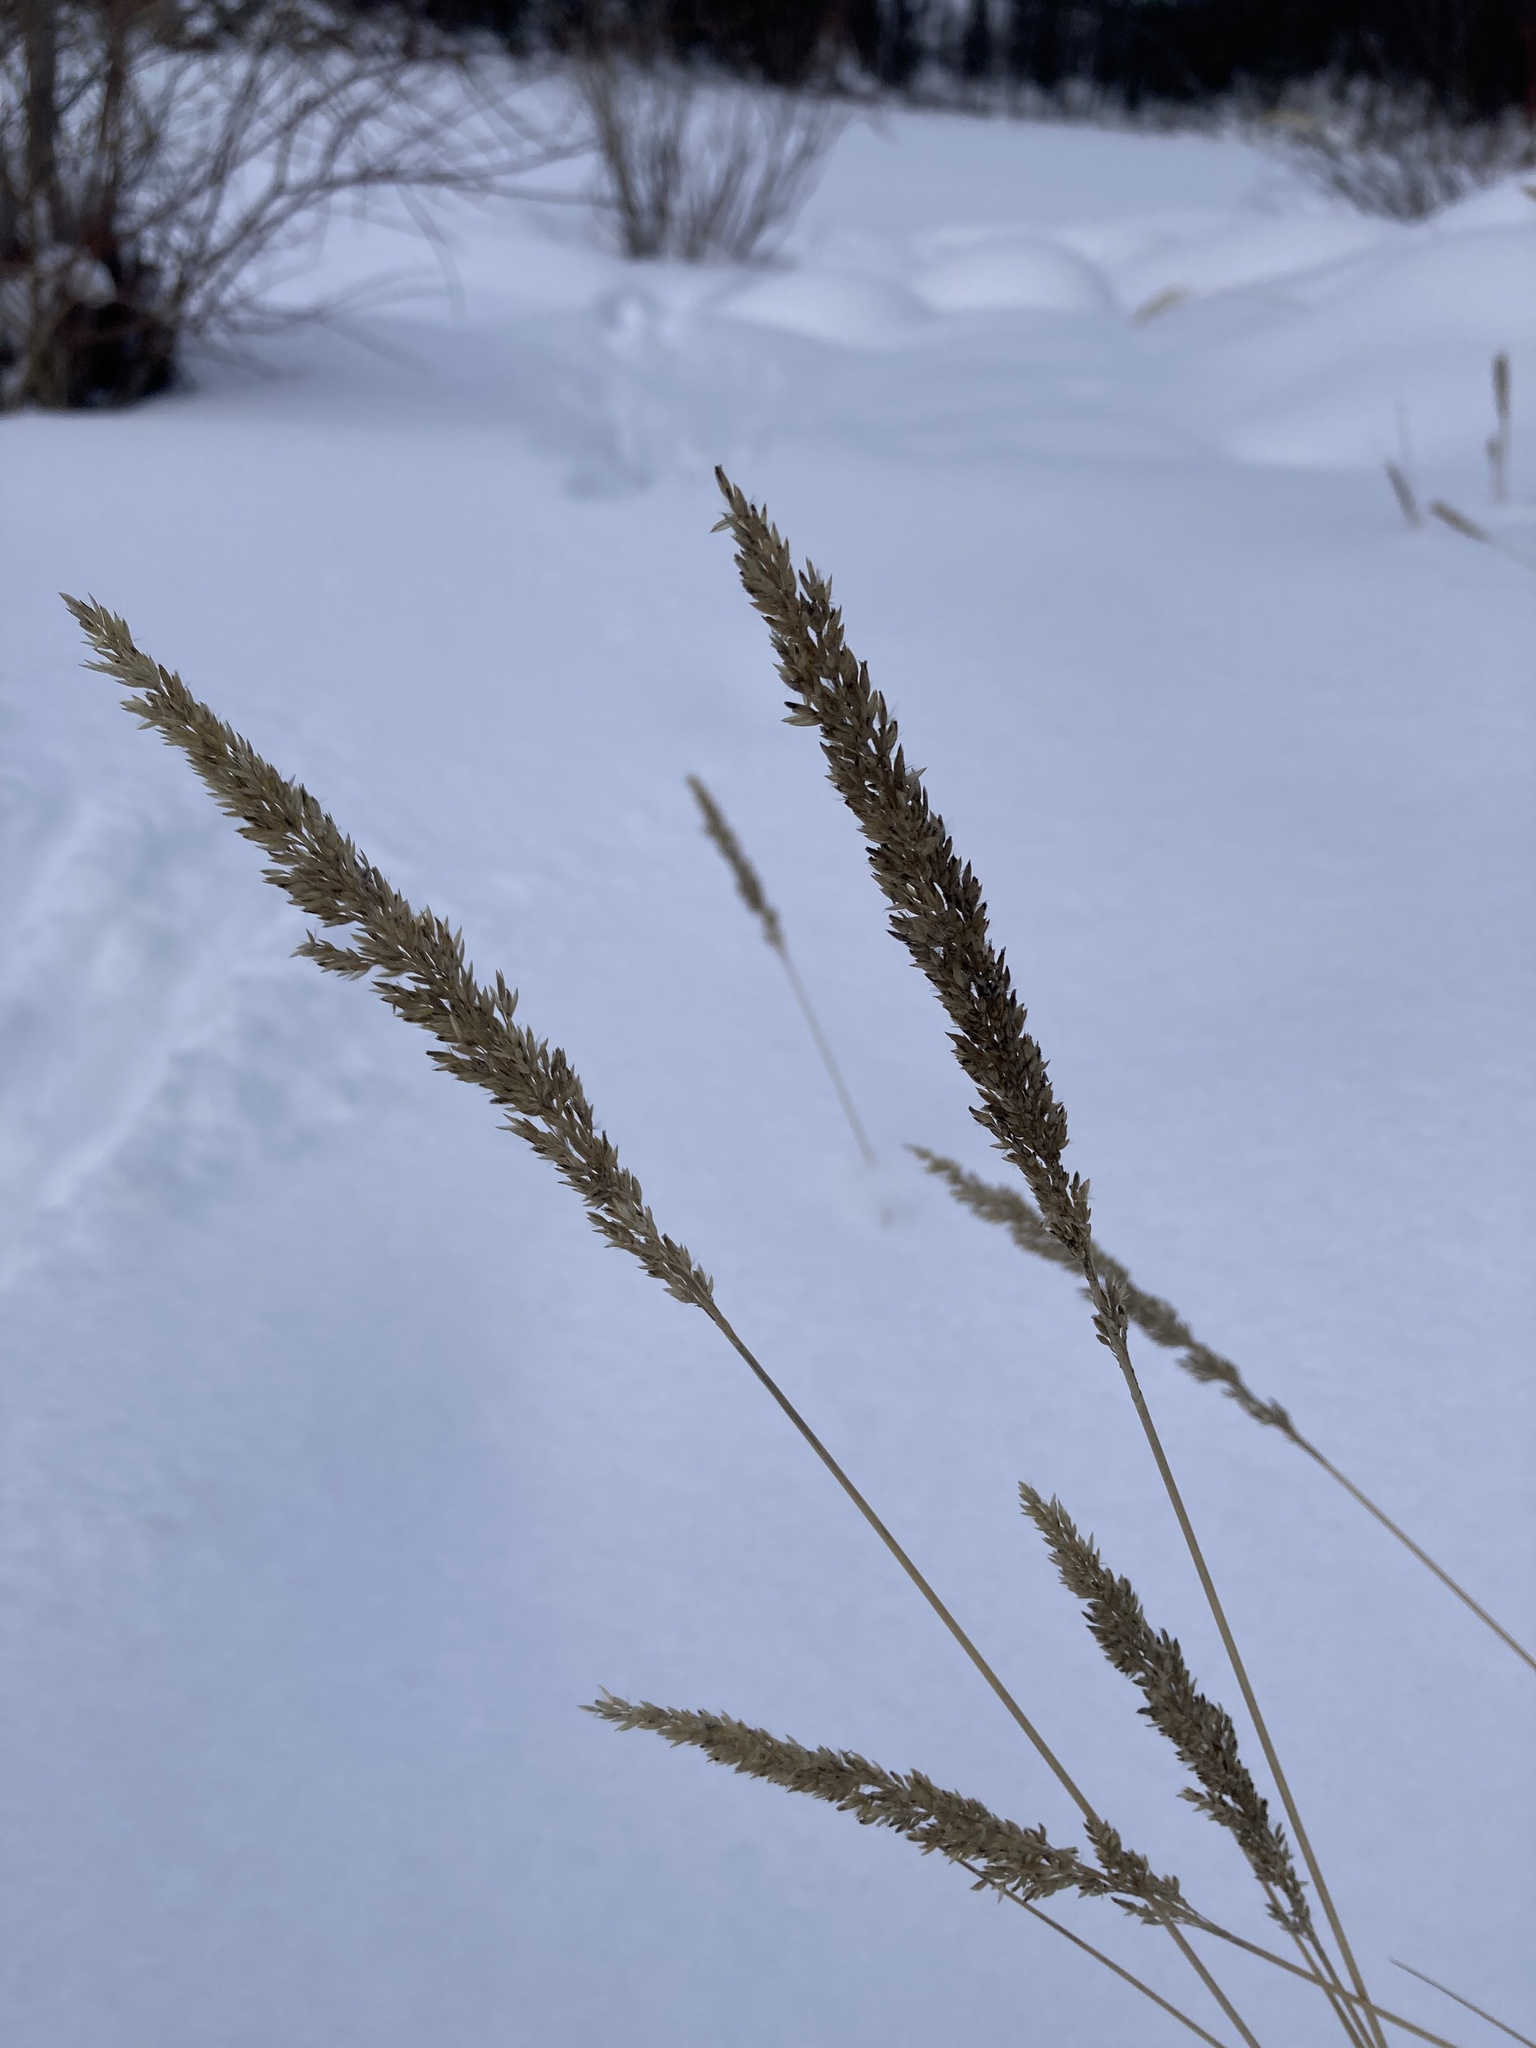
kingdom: Plantae
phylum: Tracheophyta
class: Liliopsida
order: Poales
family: Poaceae
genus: Calamagrostis
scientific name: Calamagrostis stricta
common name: Narrow small-reed
